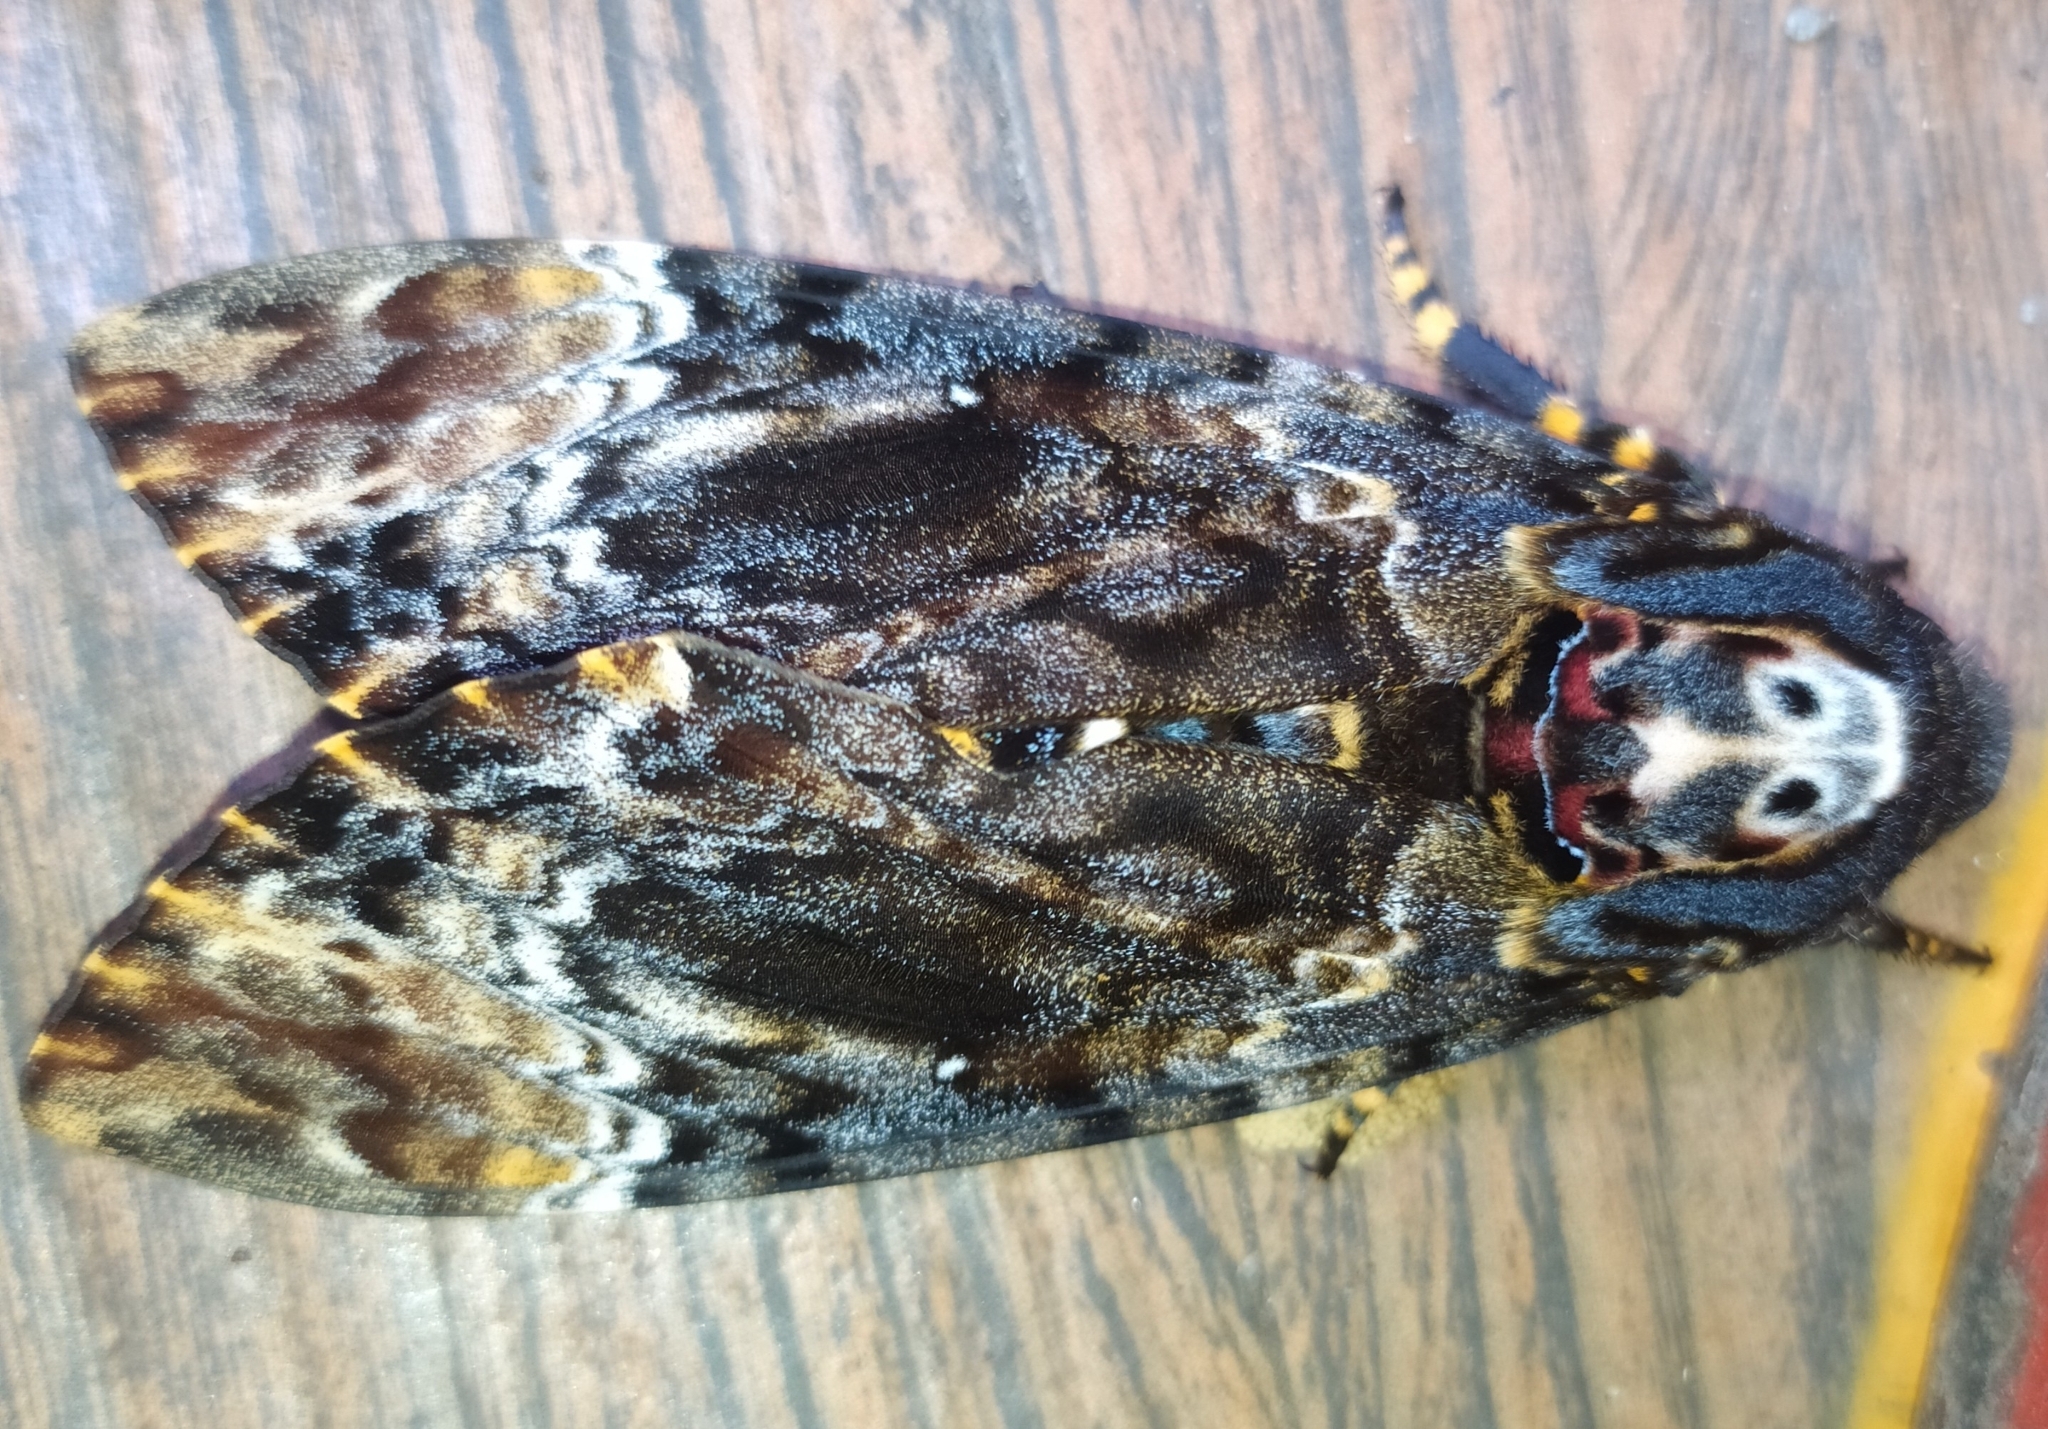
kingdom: Animalia
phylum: Arthropoda
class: Insecta
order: Lepidoptera
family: Sphingidae
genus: Acherontia
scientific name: Acherontia lachesis
